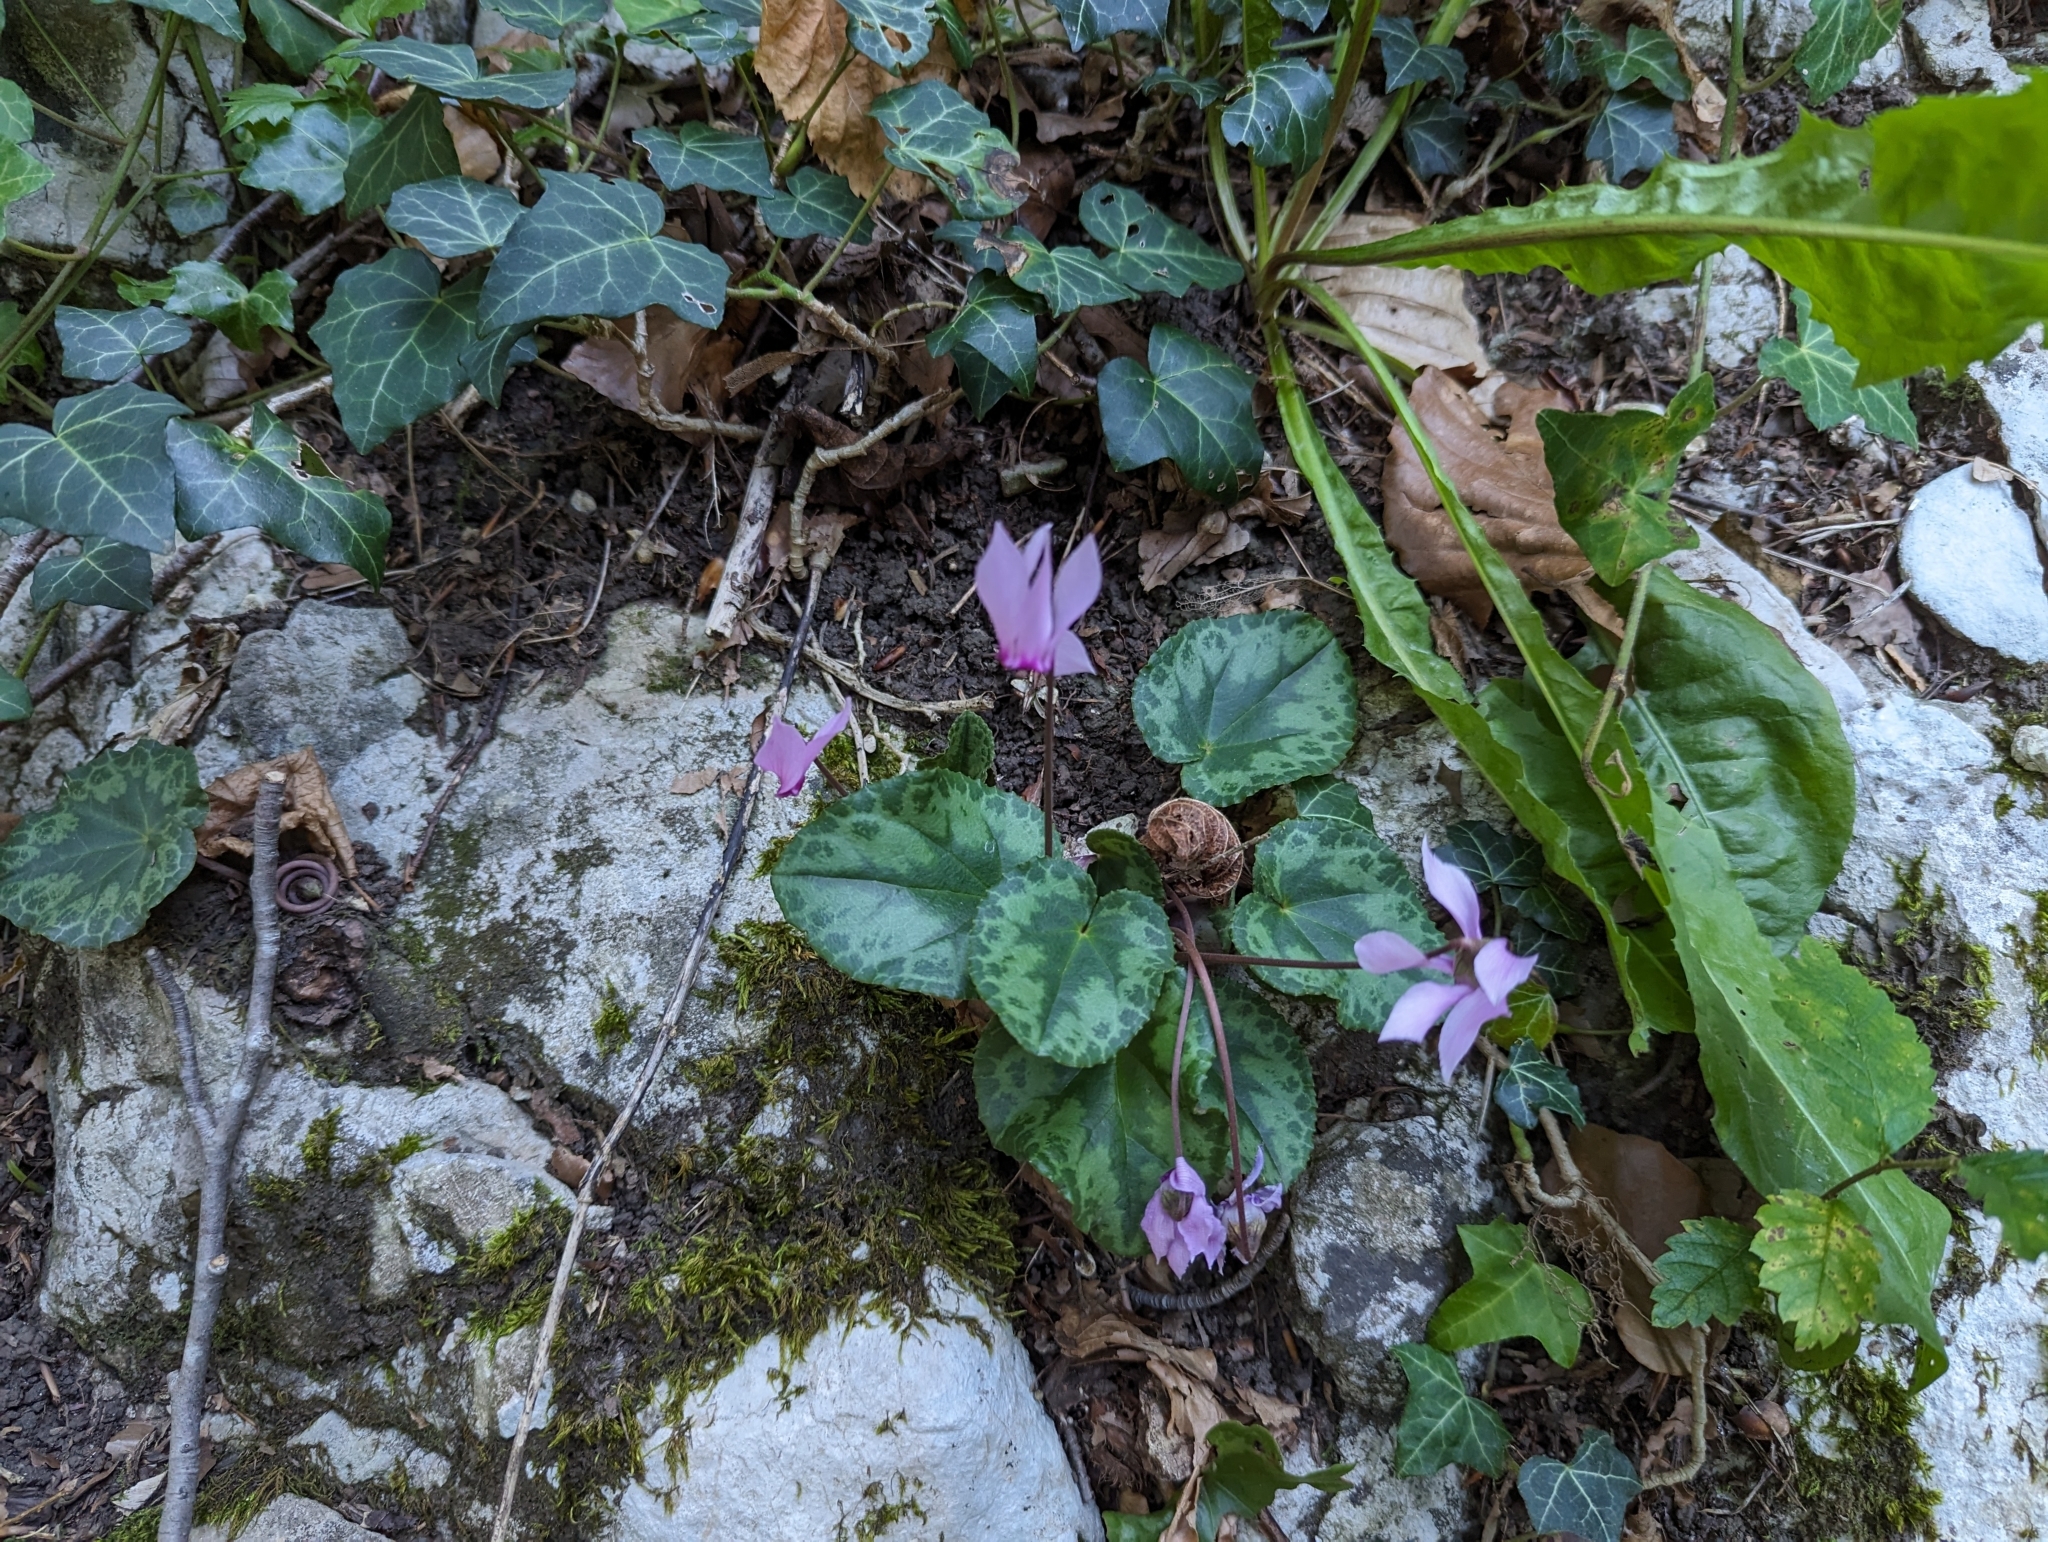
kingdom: Plantae
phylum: Tracheophyta
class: Magnoliopsida
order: Ericales
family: Primulaceae
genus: Cyclamen
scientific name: Cyclamen purpurascens
